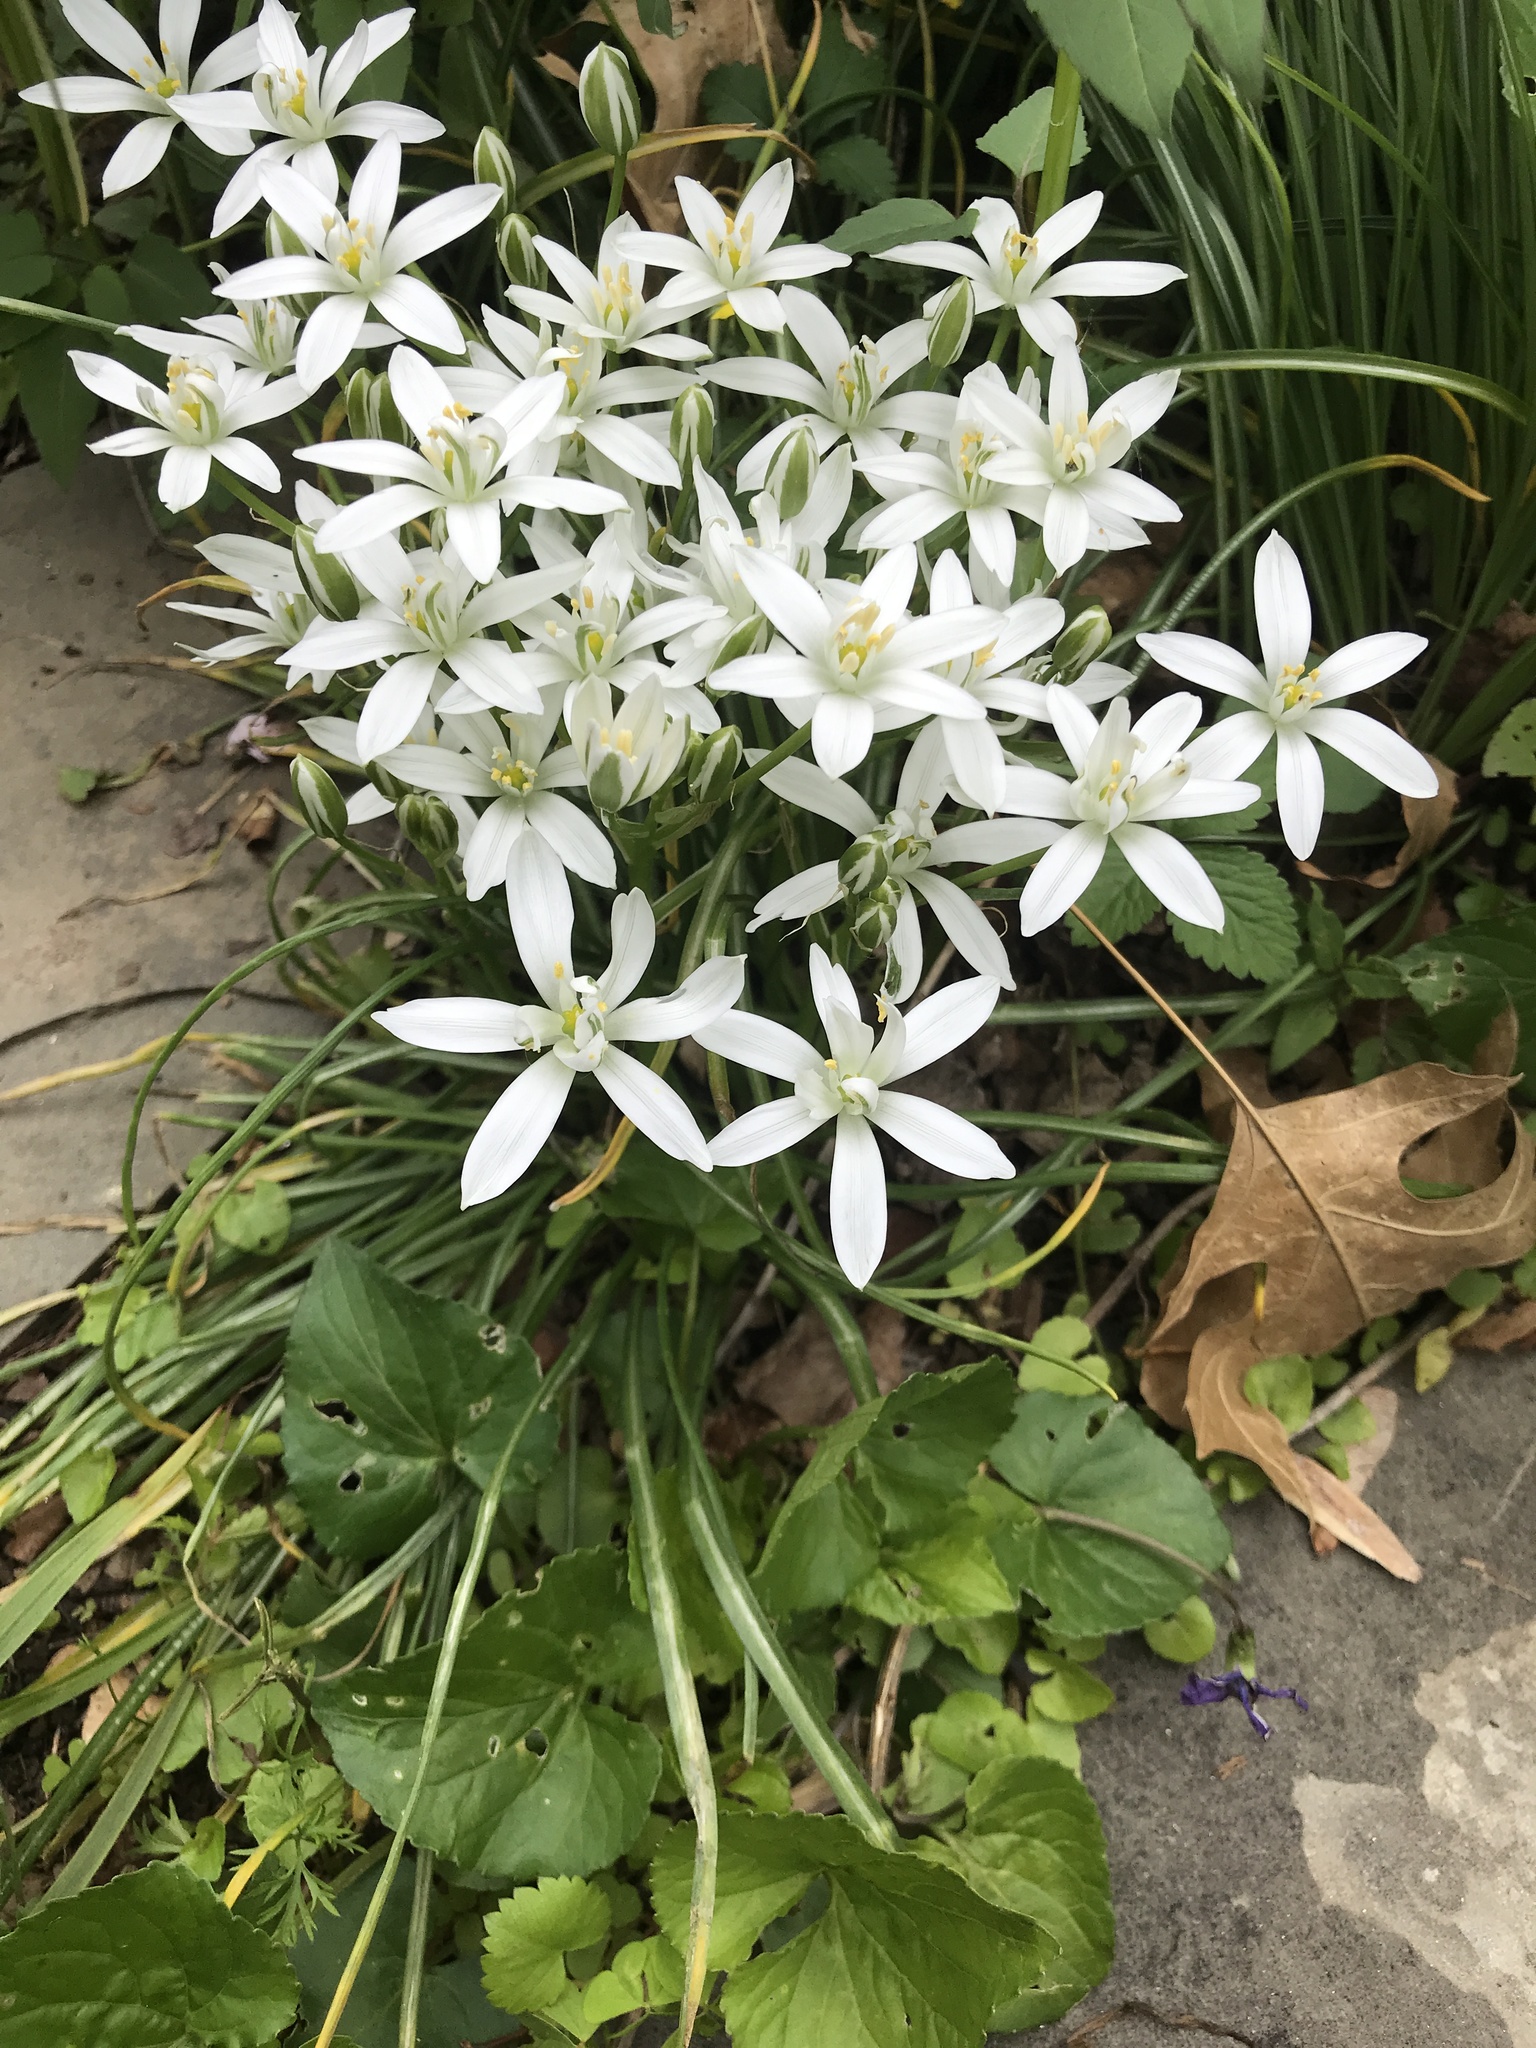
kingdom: Plantae
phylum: Tracheophyta
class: Liliopsida
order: Asparagales
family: Asparagaceae
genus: Ornithogalum
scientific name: Ornithogalum umbellatum
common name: Garden star-of-bethlehem
